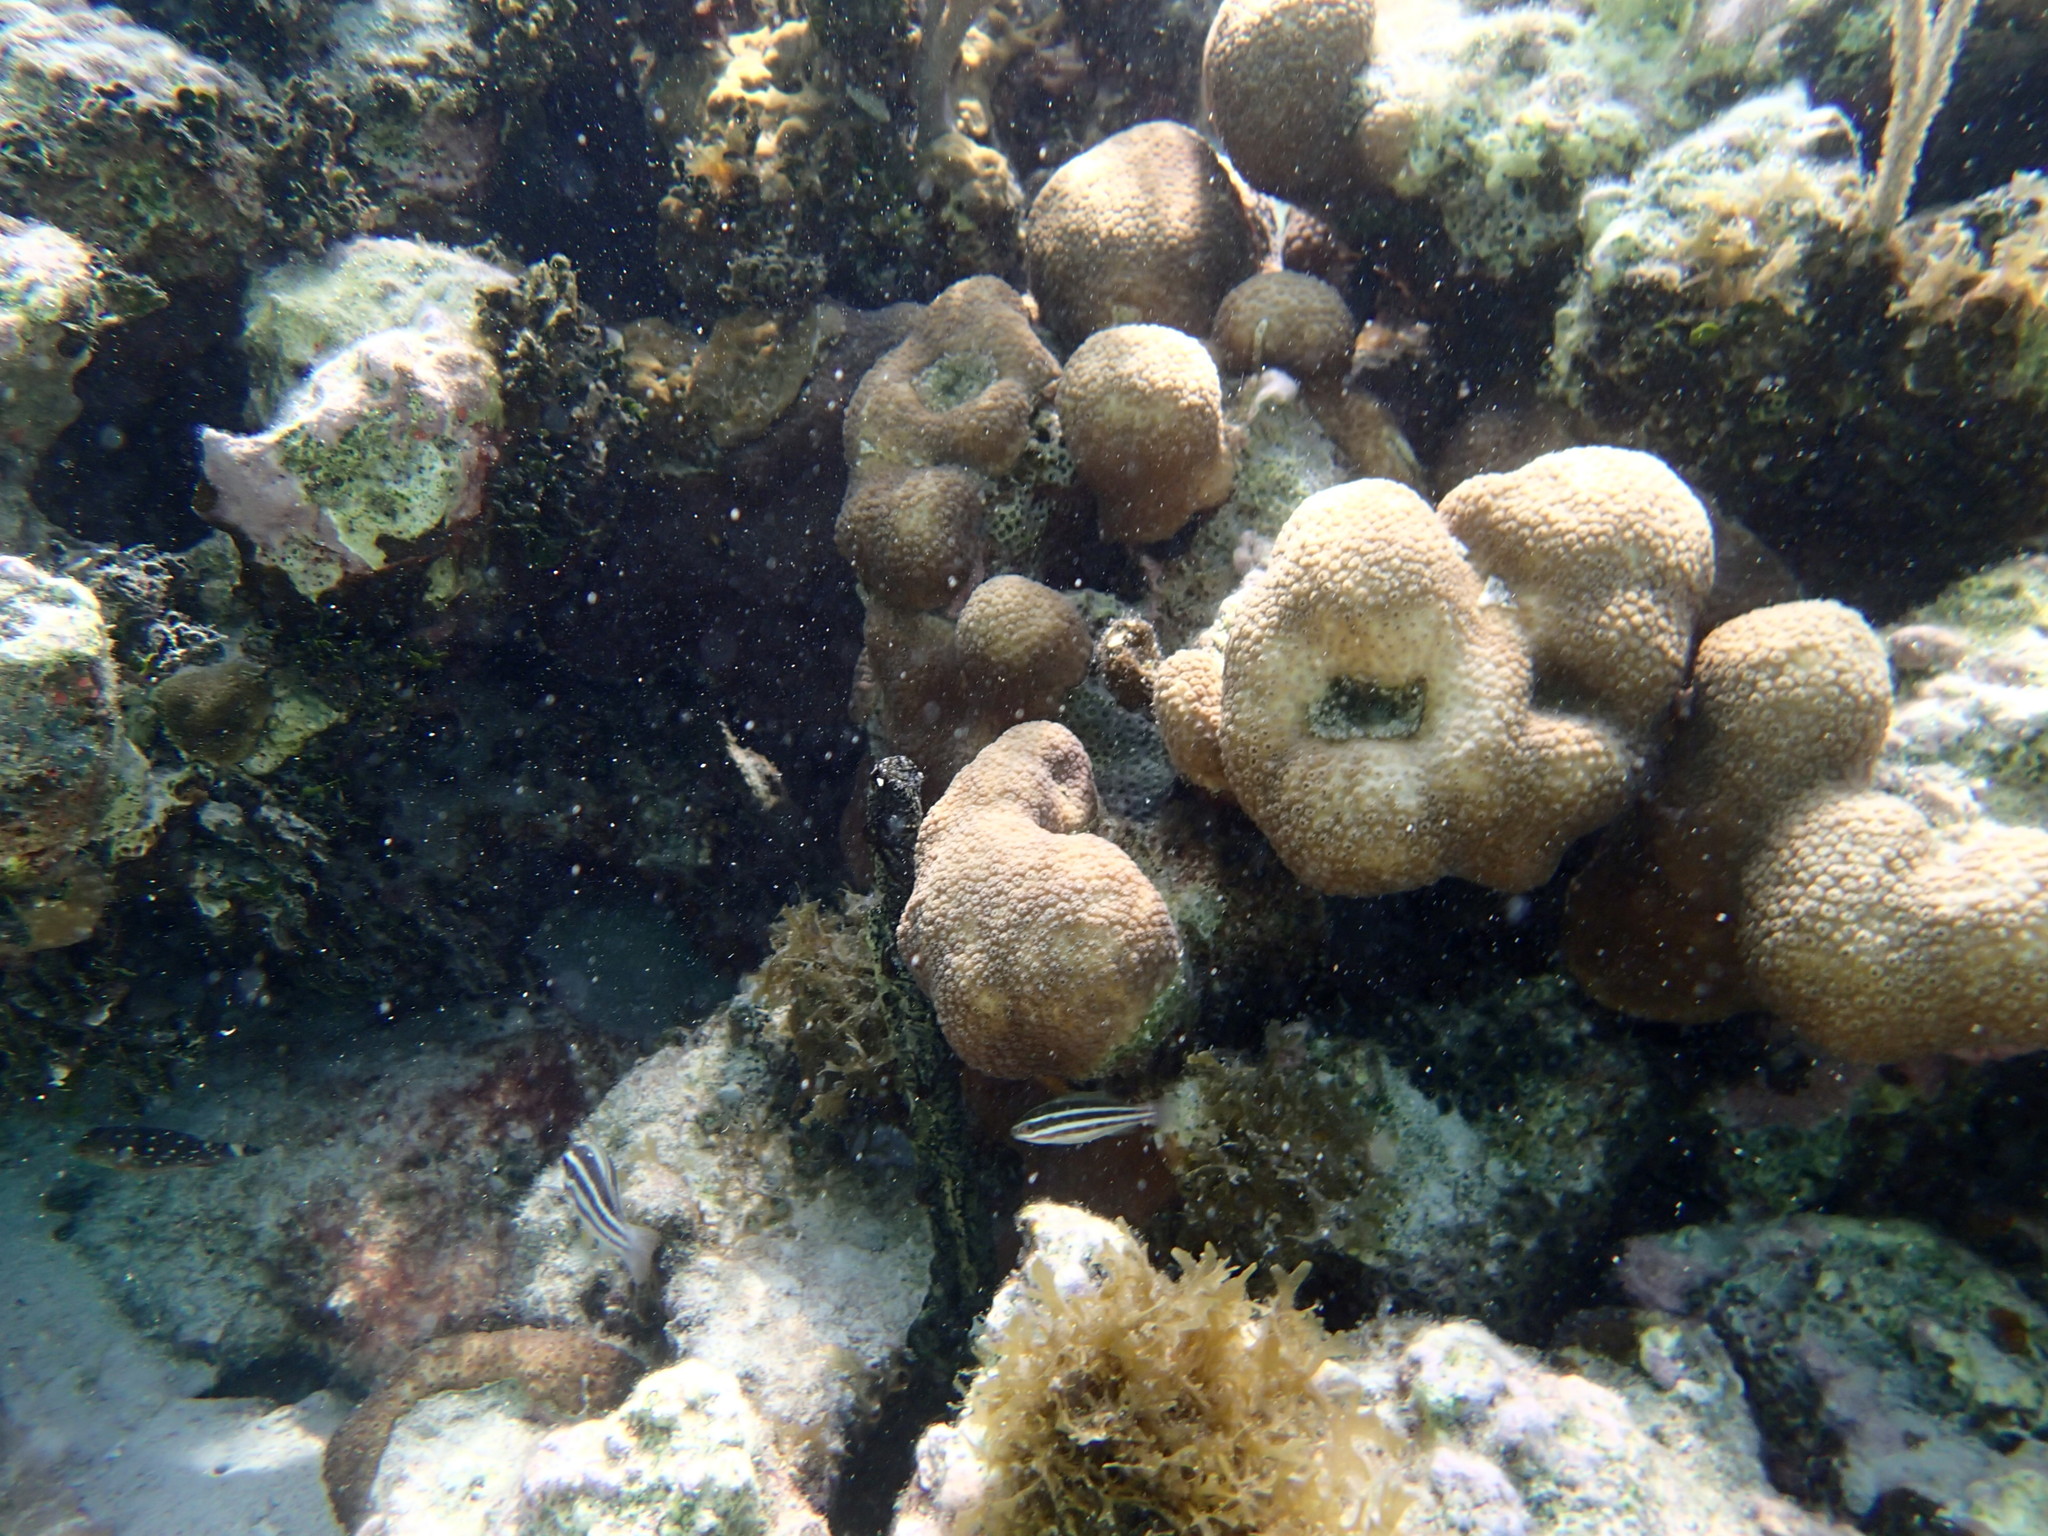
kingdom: Animalia
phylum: Chordata
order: Perciformes
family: Scaridae
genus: Scarus
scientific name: Scarus iseri
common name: Striped parrotfish
